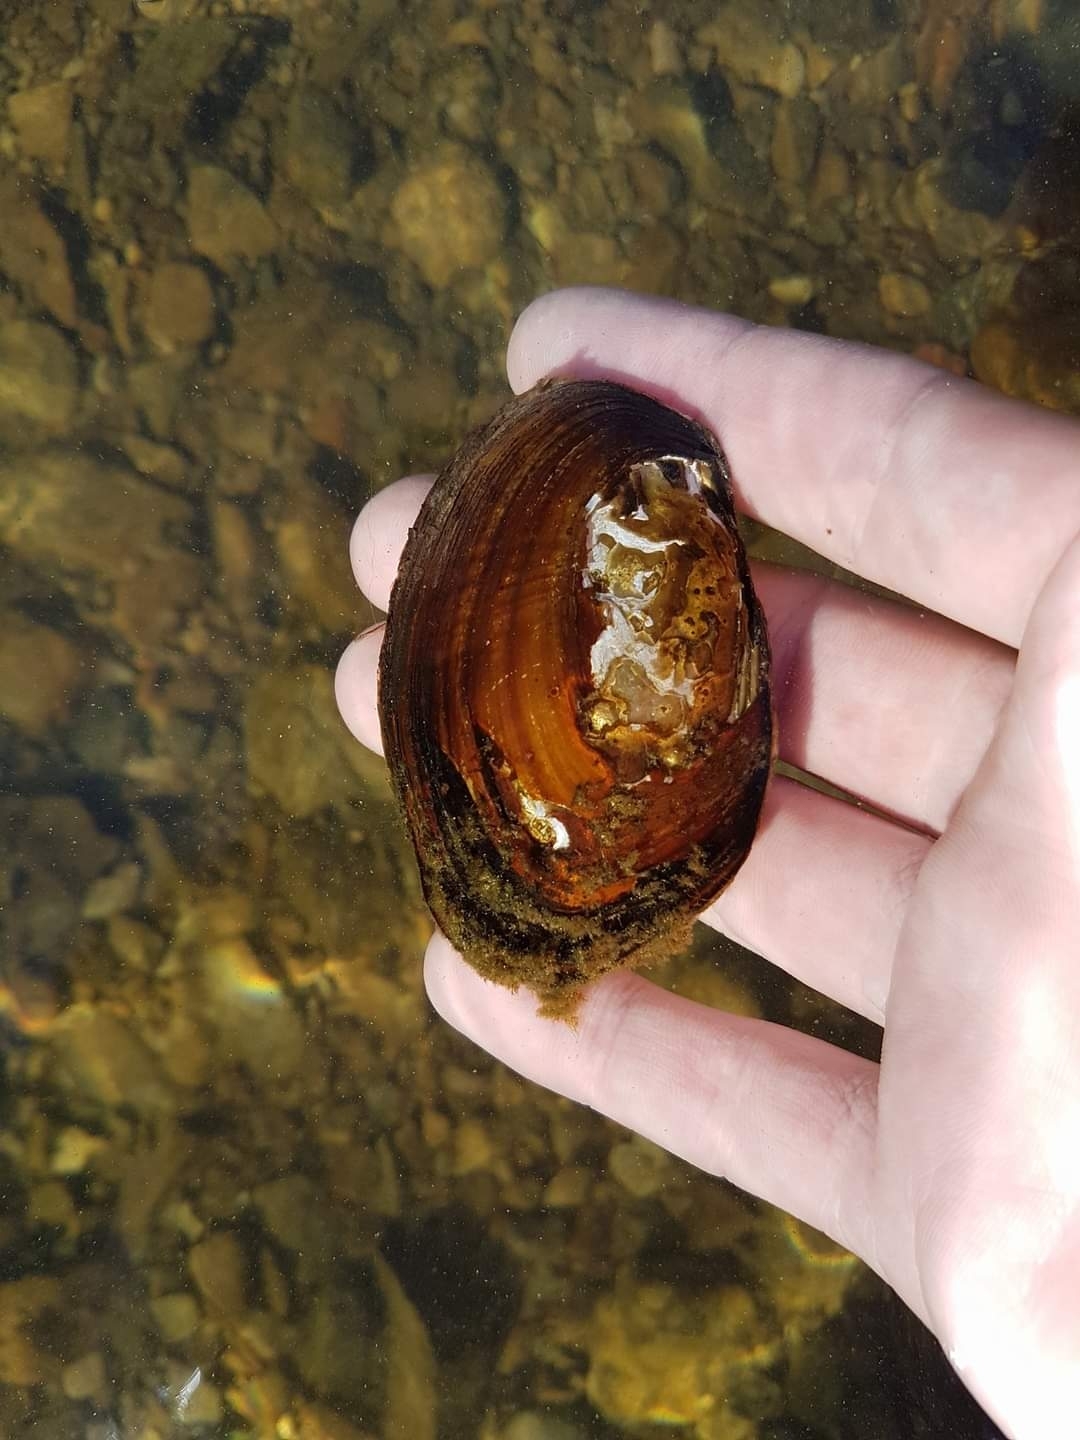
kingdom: Animalia
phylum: Mollusca
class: Bivalvia
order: Unionida
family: Hyriidae
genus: Echyridella
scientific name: Echyridella menziesii
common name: New zealand freshwater mussel
